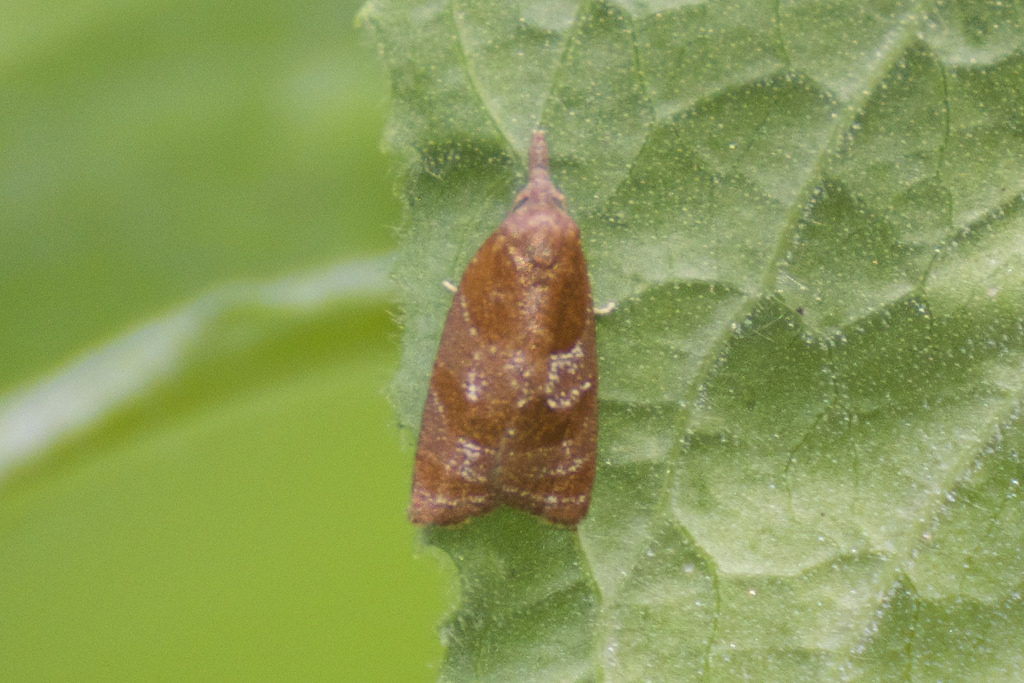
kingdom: Animalia
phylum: Arthropoda
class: Insecta
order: Lepidoptera
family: Tortricidae
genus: Cenopis
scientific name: Cenopis diluticostana
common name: Spring dead-leaf roller moth
